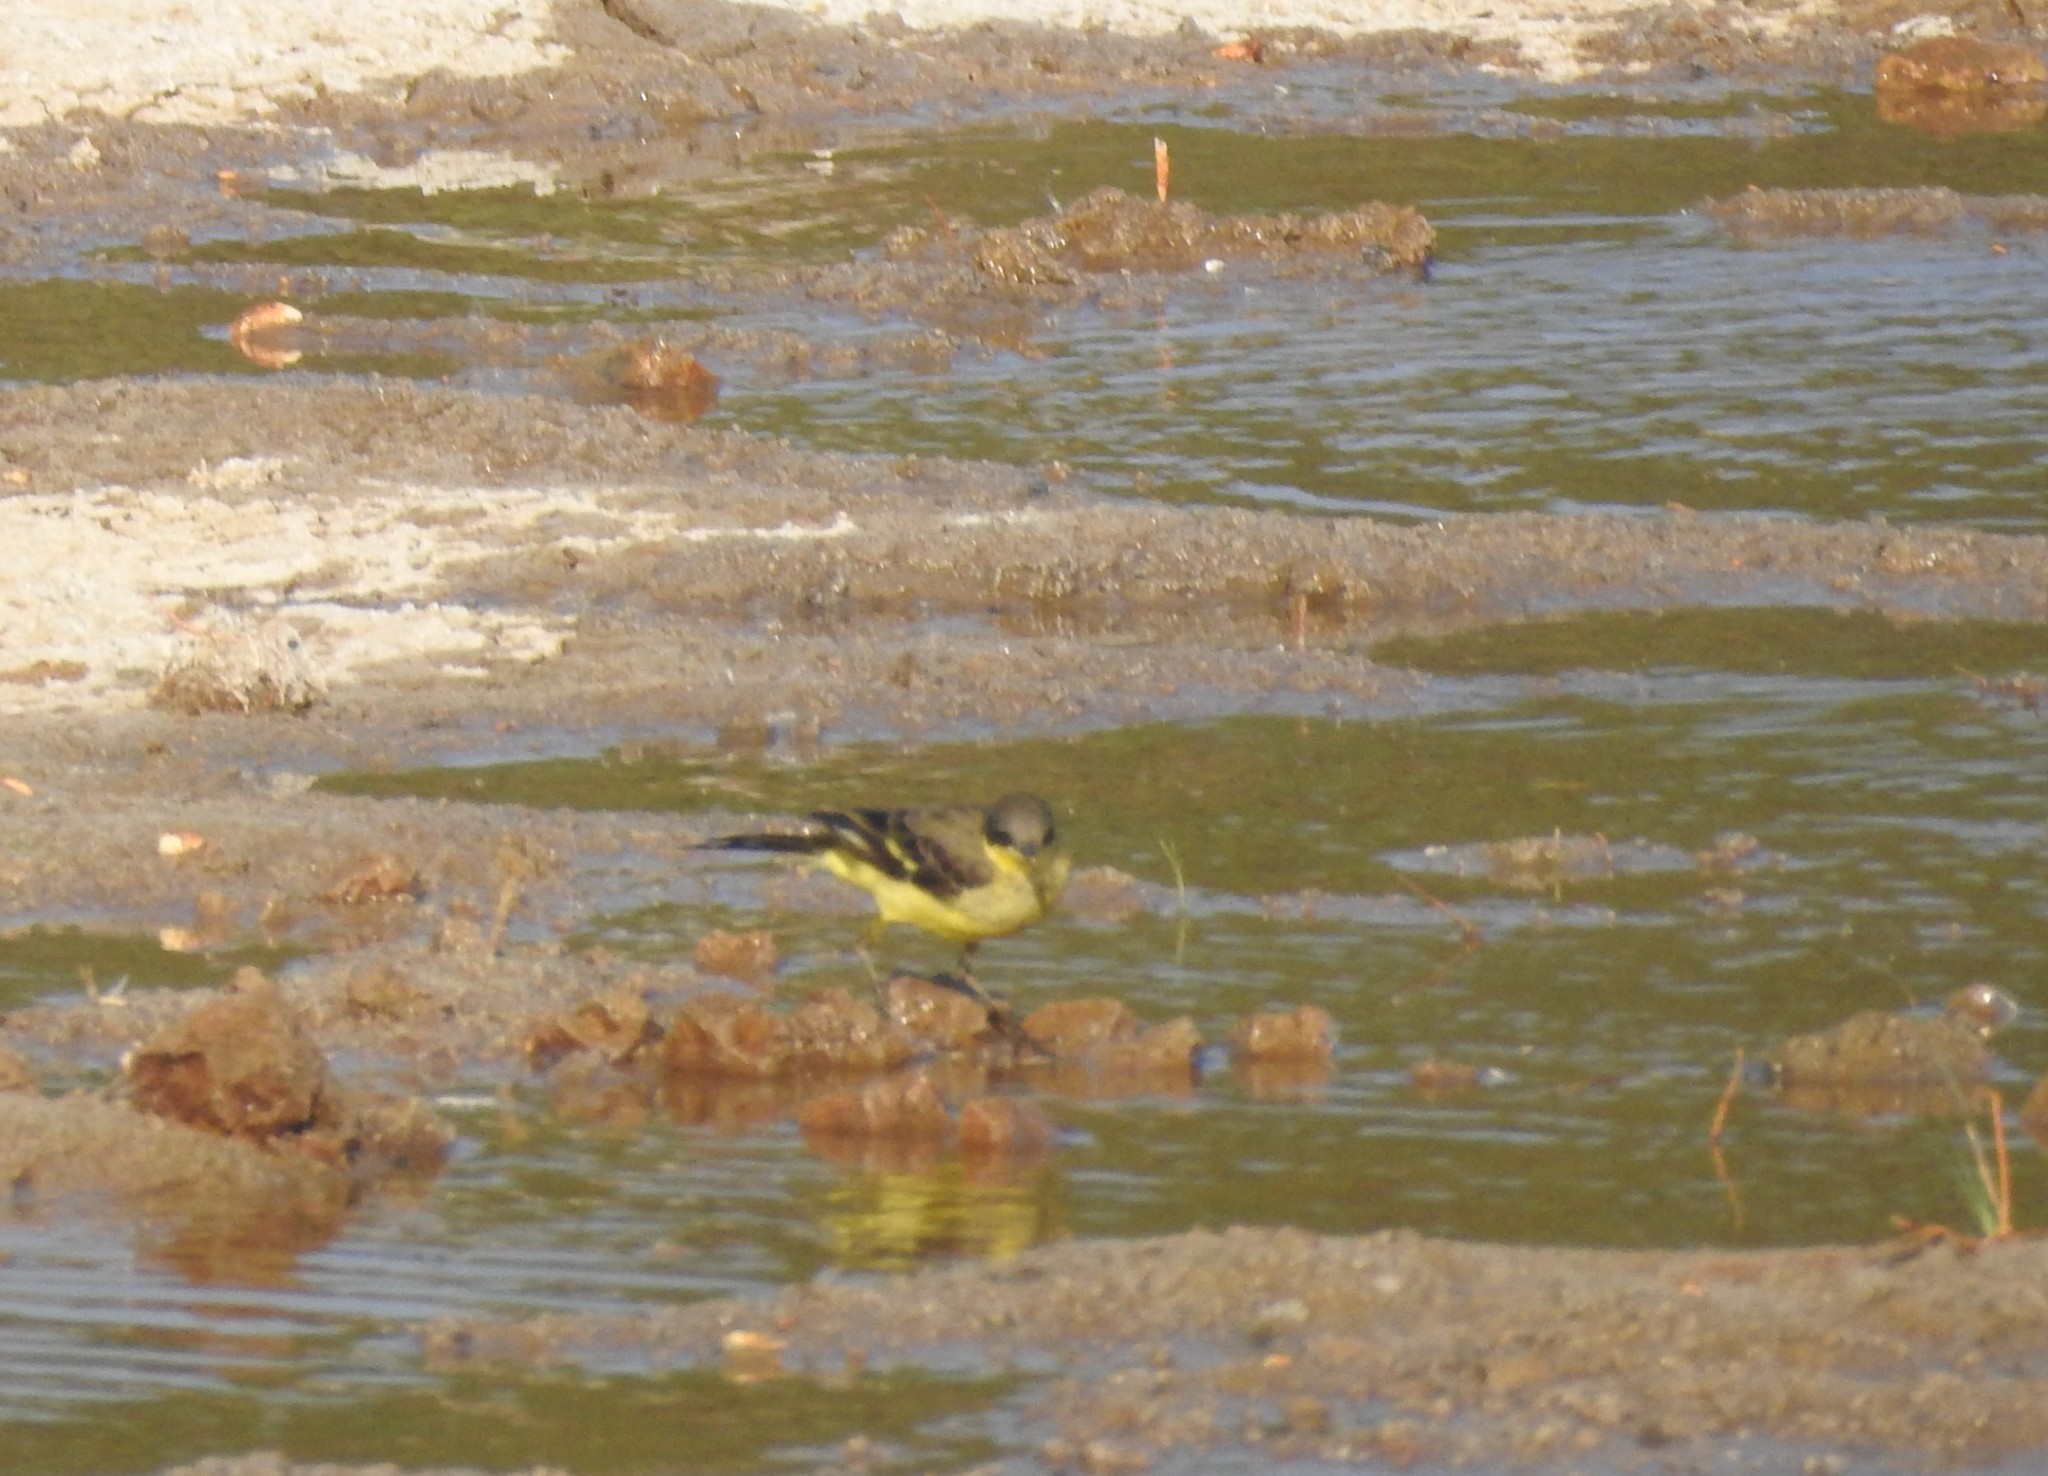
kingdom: Animalia
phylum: Chordata
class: Aves
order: Passeriformes
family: Motacillidae
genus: Motacilla
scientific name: Motacilla flava
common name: Western yellow wagtail
